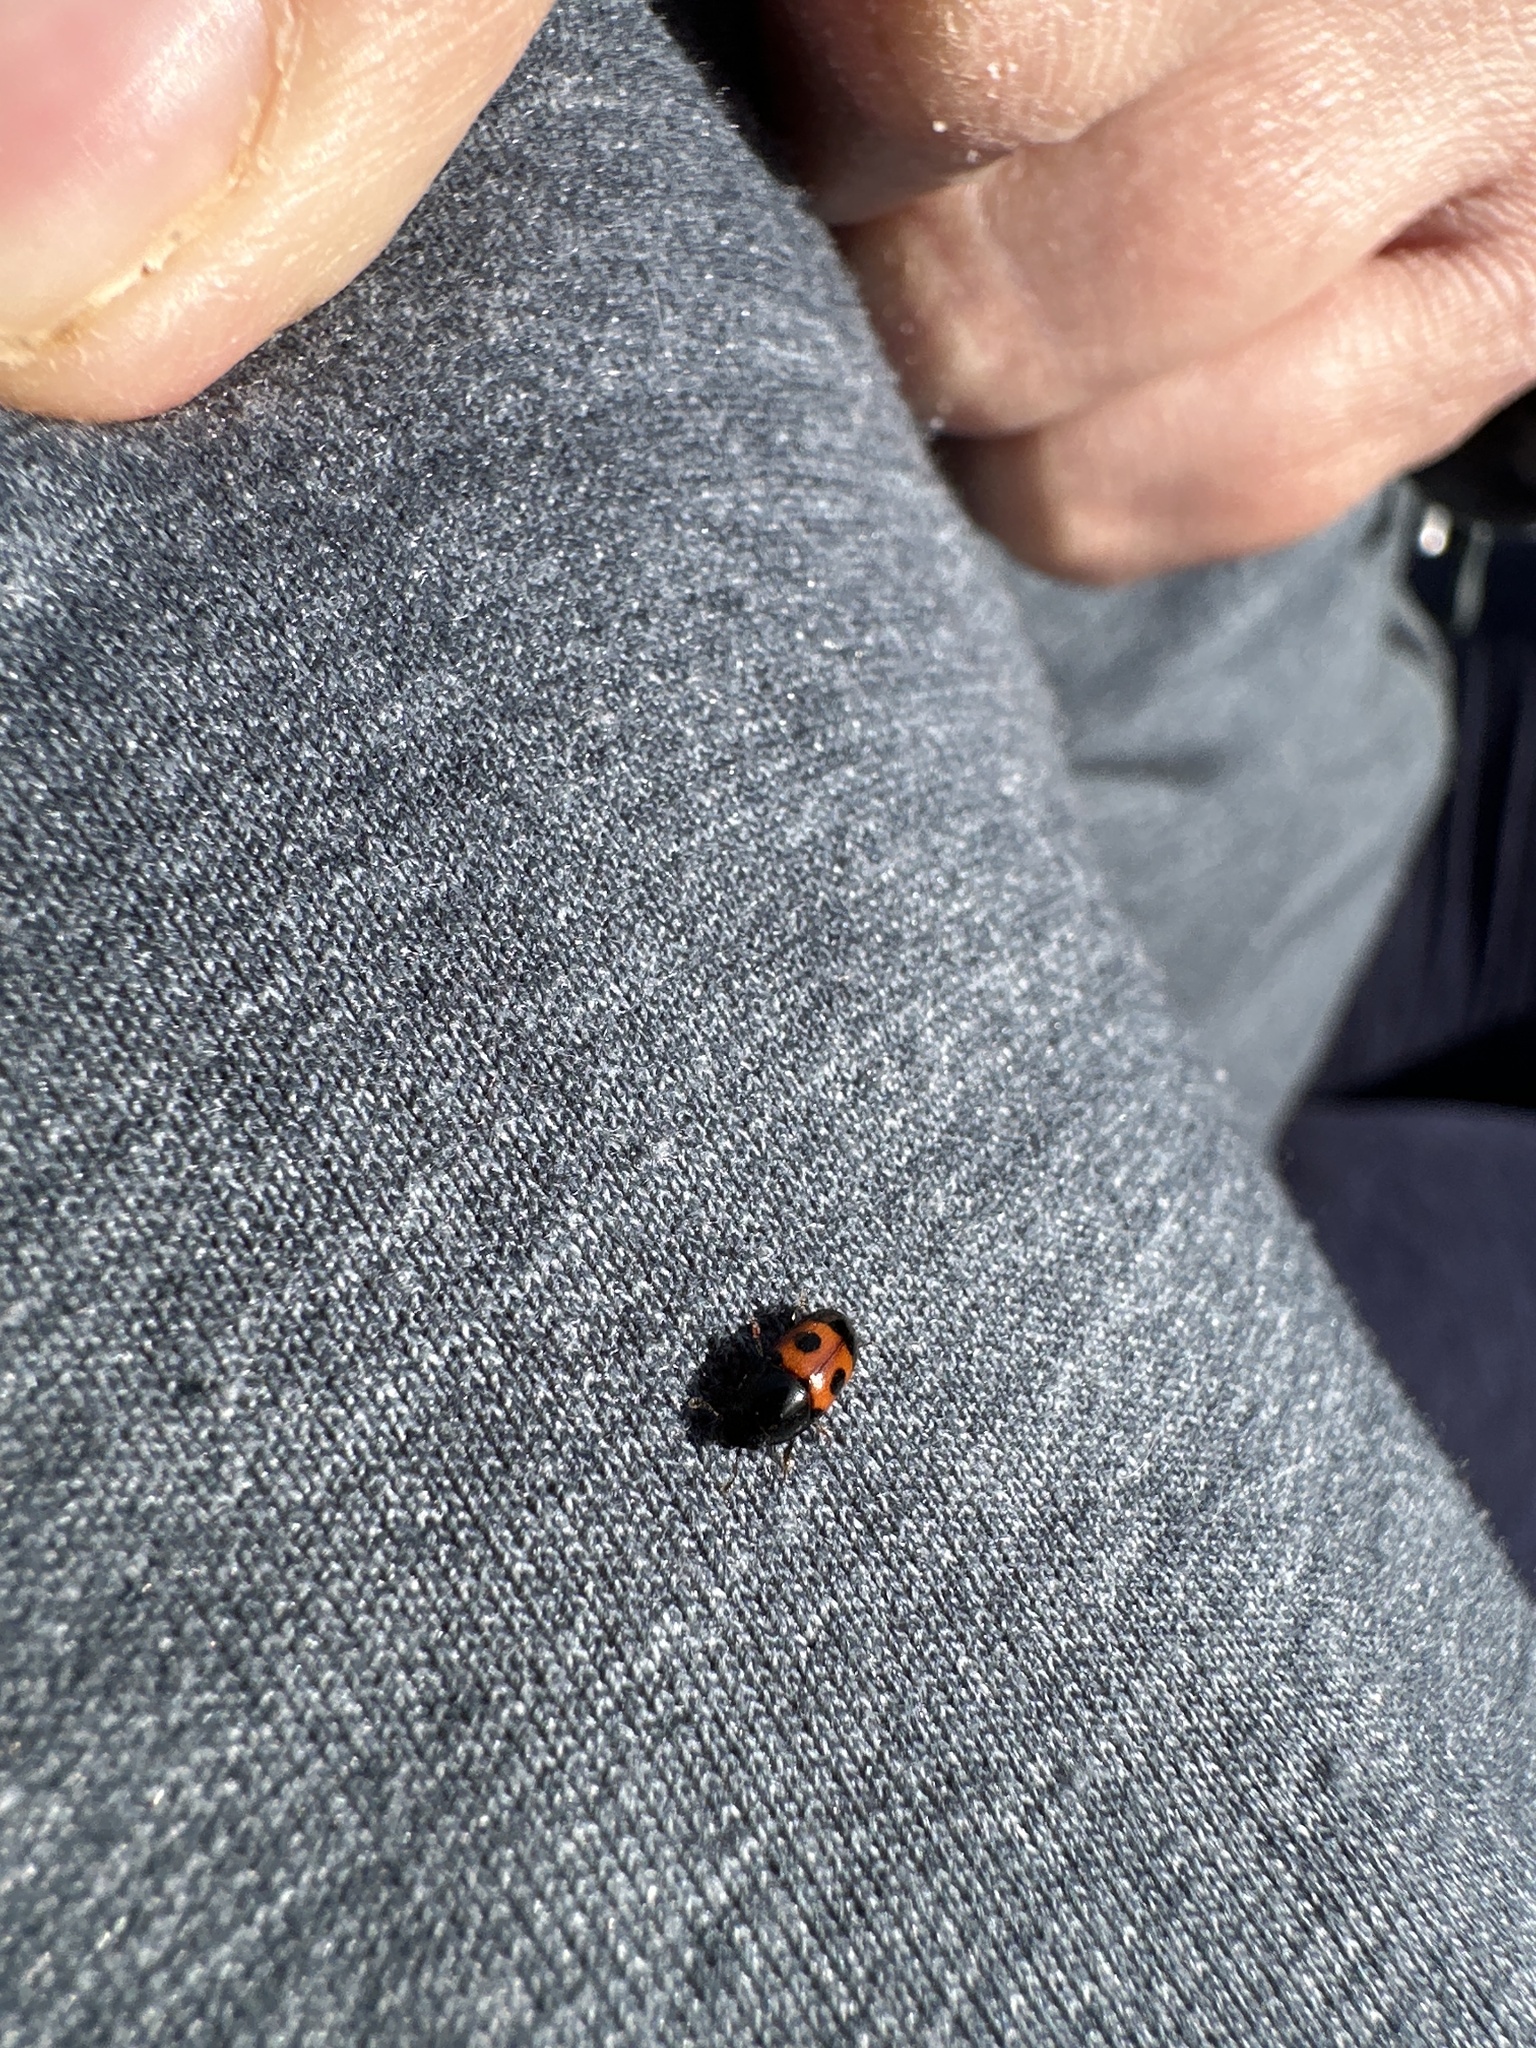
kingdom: Animalia
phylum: Arthropoda
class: Insecta
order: Coleoptera
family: Nitidulidae
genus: Glischrochilus
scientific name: Glischrochilus sanguinolentus
